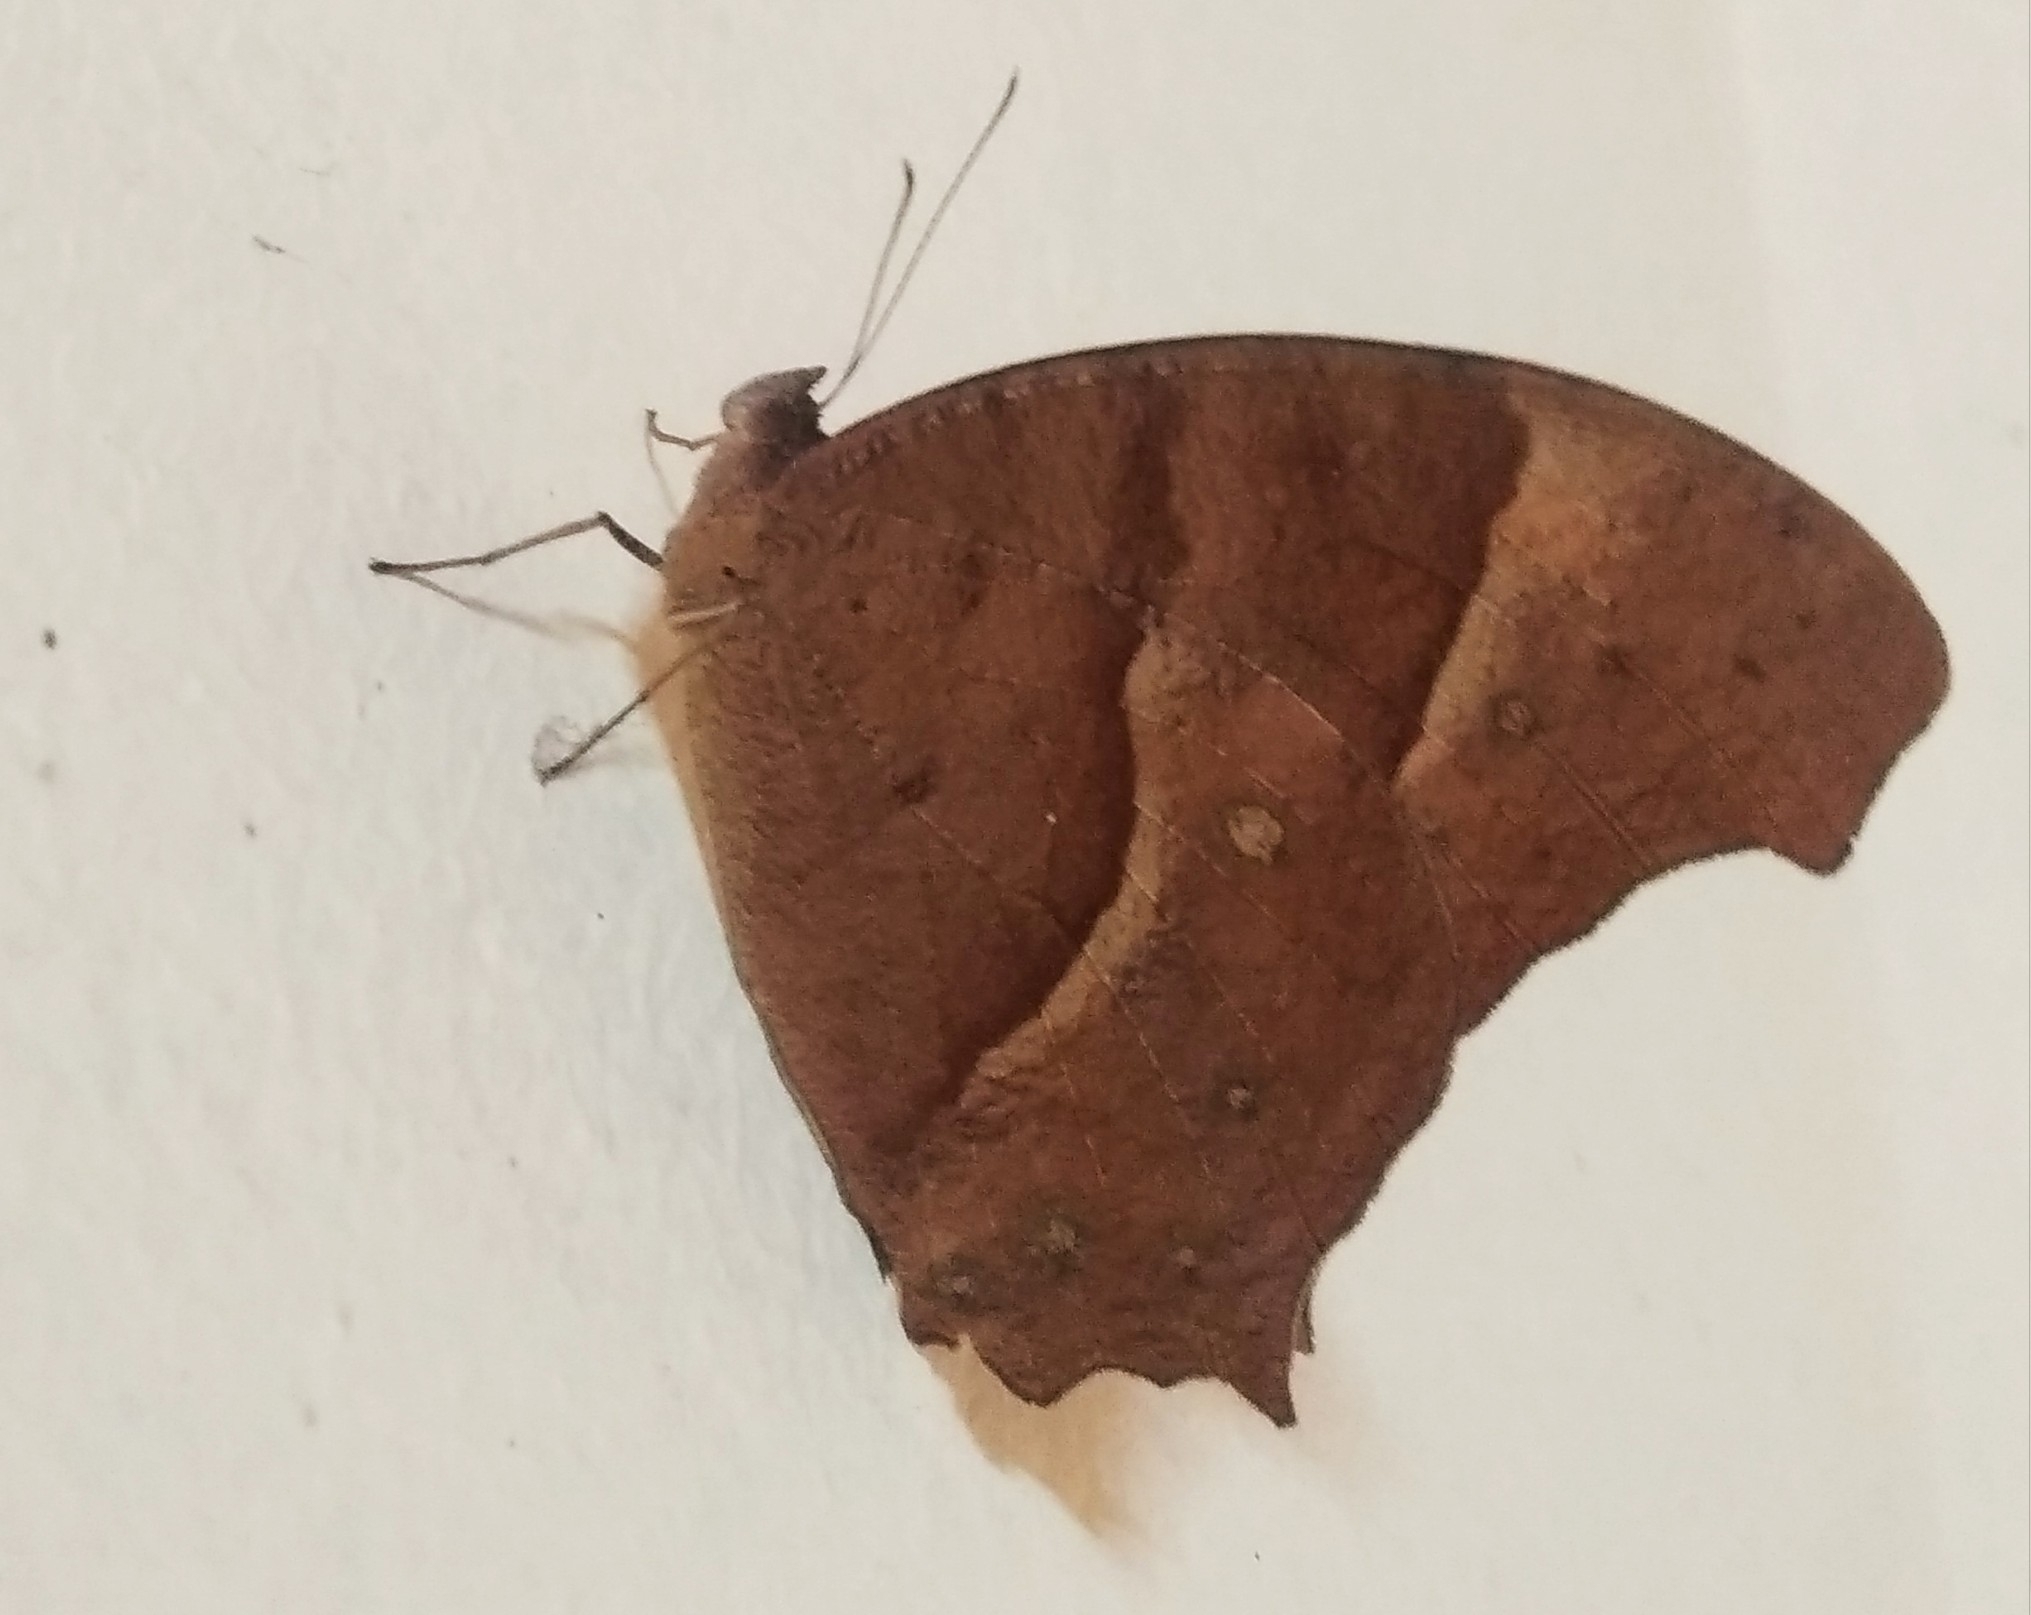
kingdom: Animalia
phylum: Arthropoda
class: Insecta
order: Lepidoptera
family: Nymphalidae
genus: Melanitis
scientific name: Melanitis leda
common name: Twilight brown
